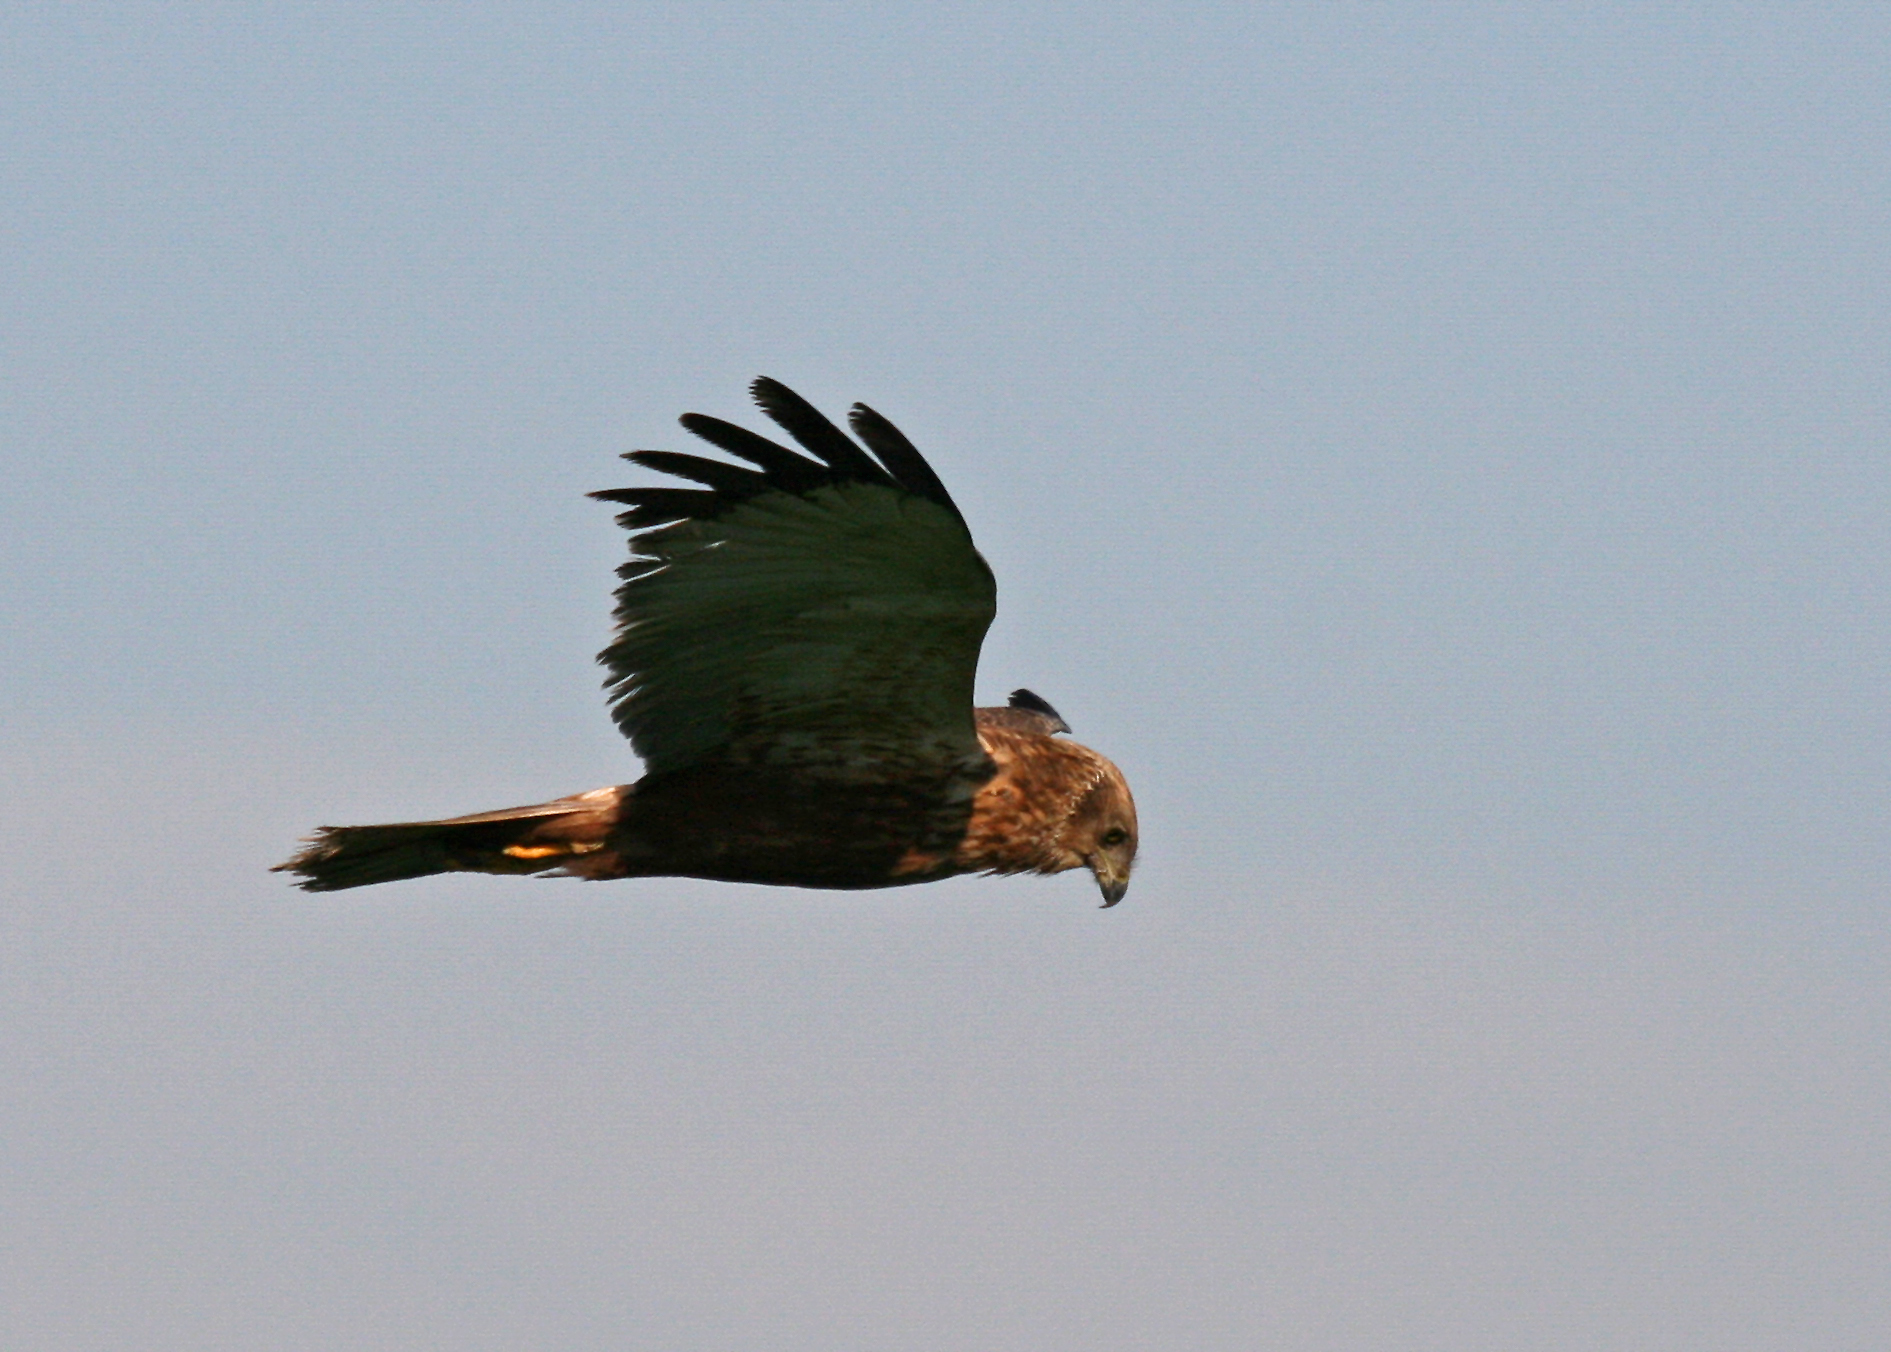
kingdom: Animalia
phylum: Chordata
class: Aves
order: Accipitriformes
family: Accipitridae
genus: Circus
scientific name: Circus aeruginosus
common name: Western marsh harrier
